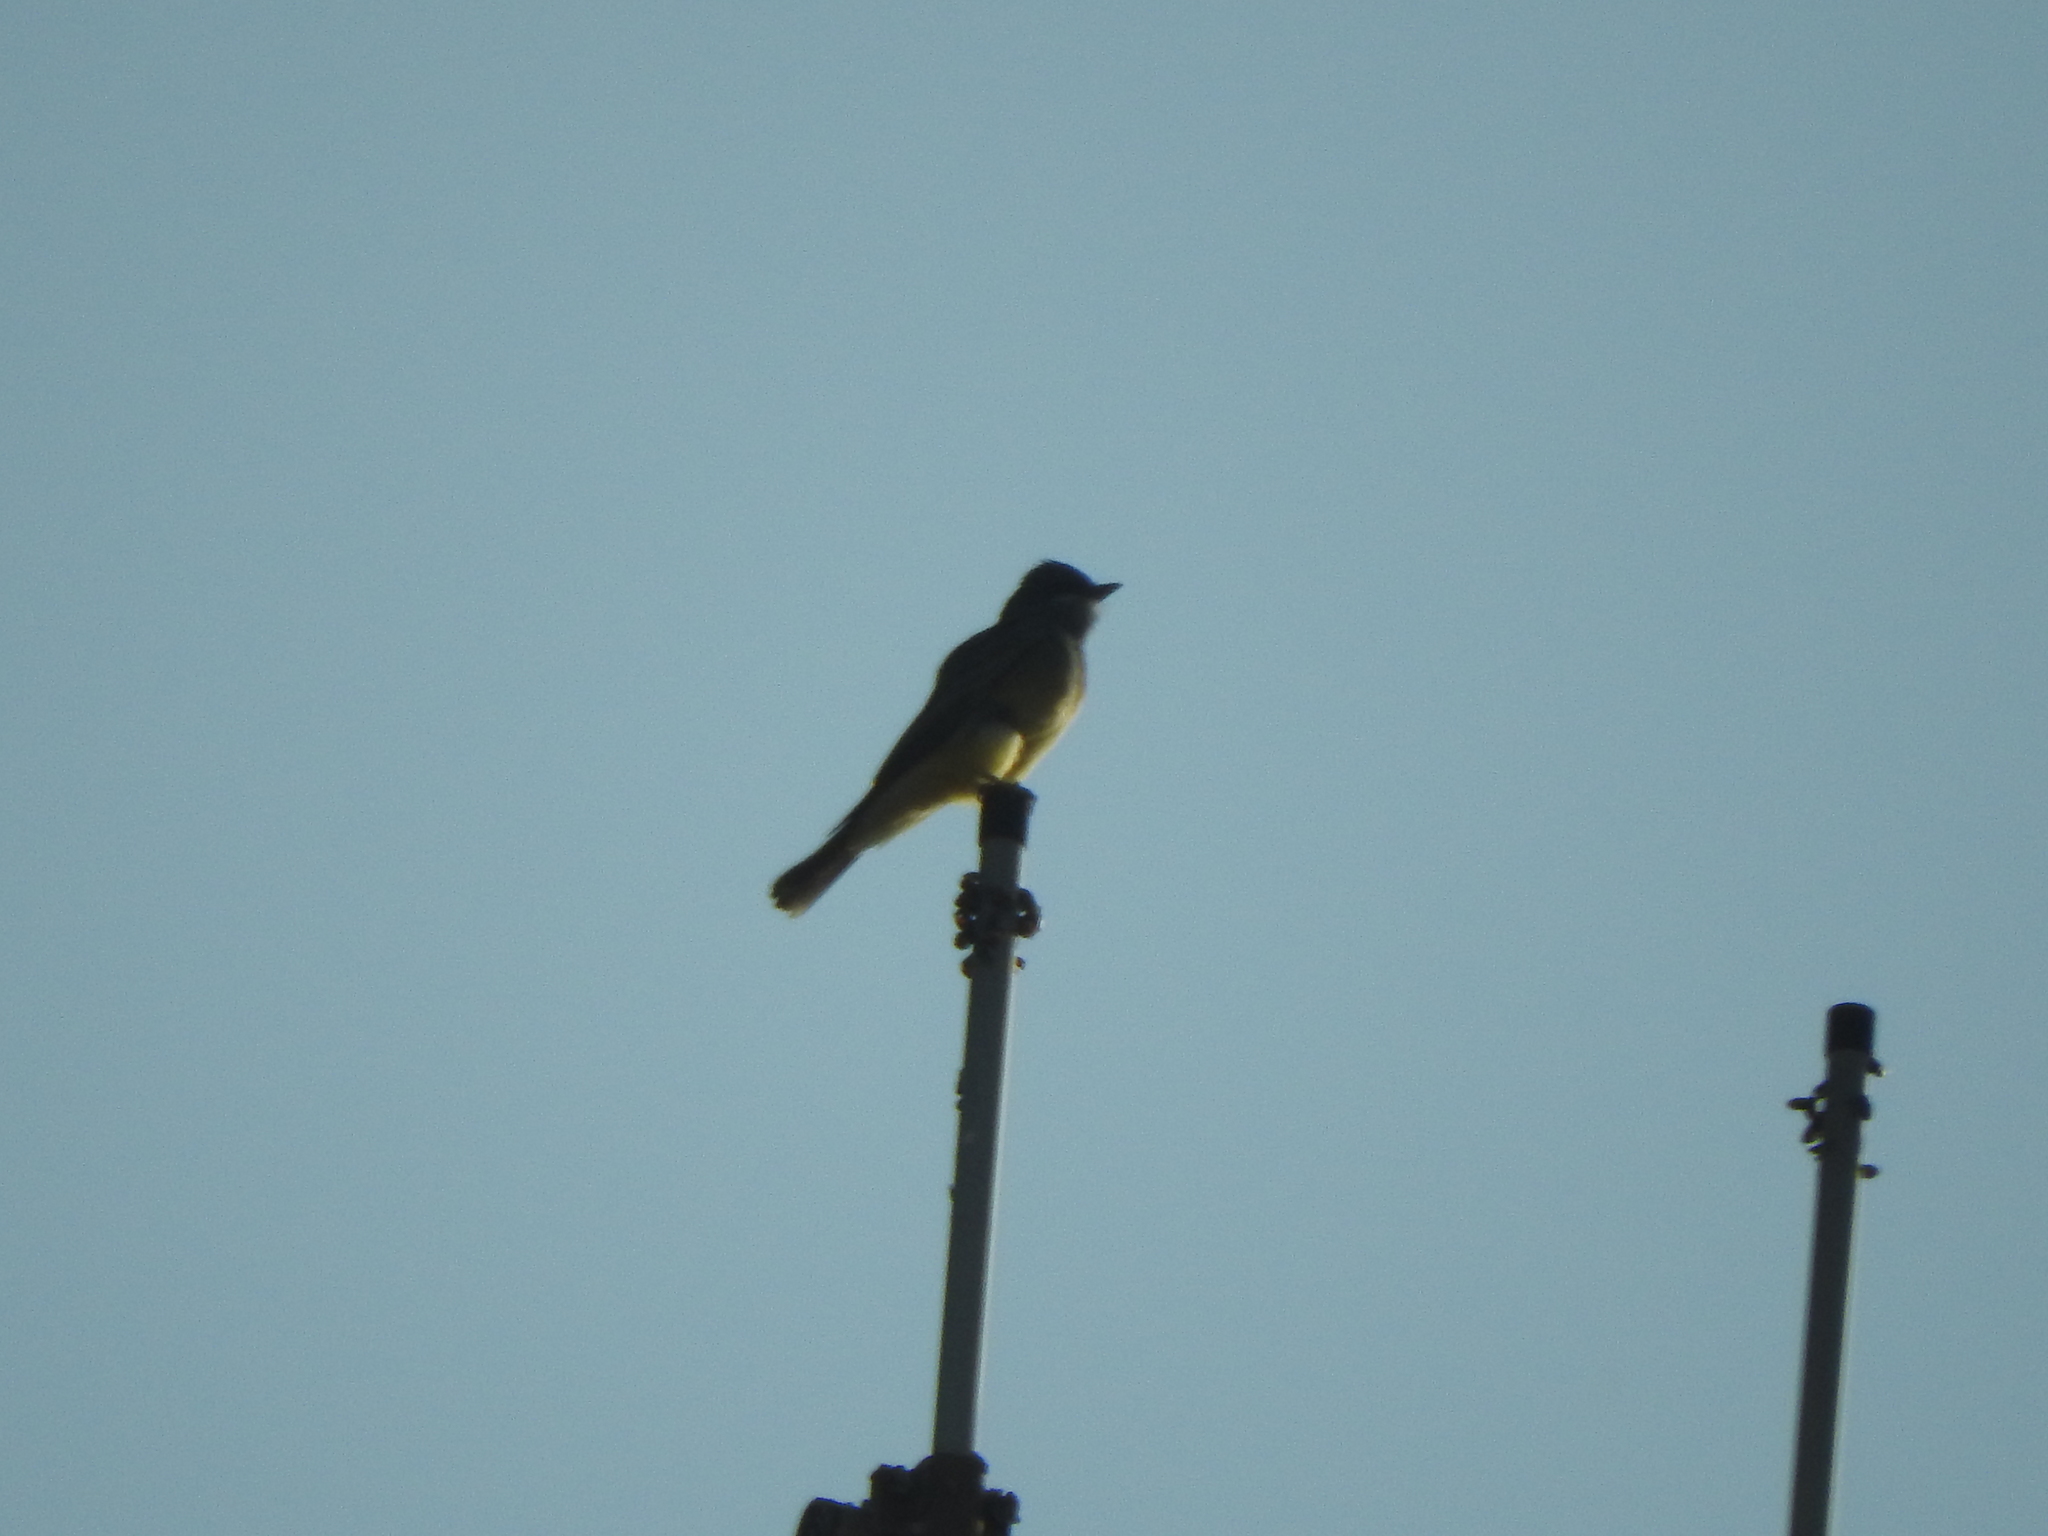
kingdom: Animalia
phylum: Chordata
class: Aves
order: Passeriformes
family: Tyrannidae
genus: Tyrannus
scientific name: Tyrannus vociferans
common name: Cassin's kingbird
